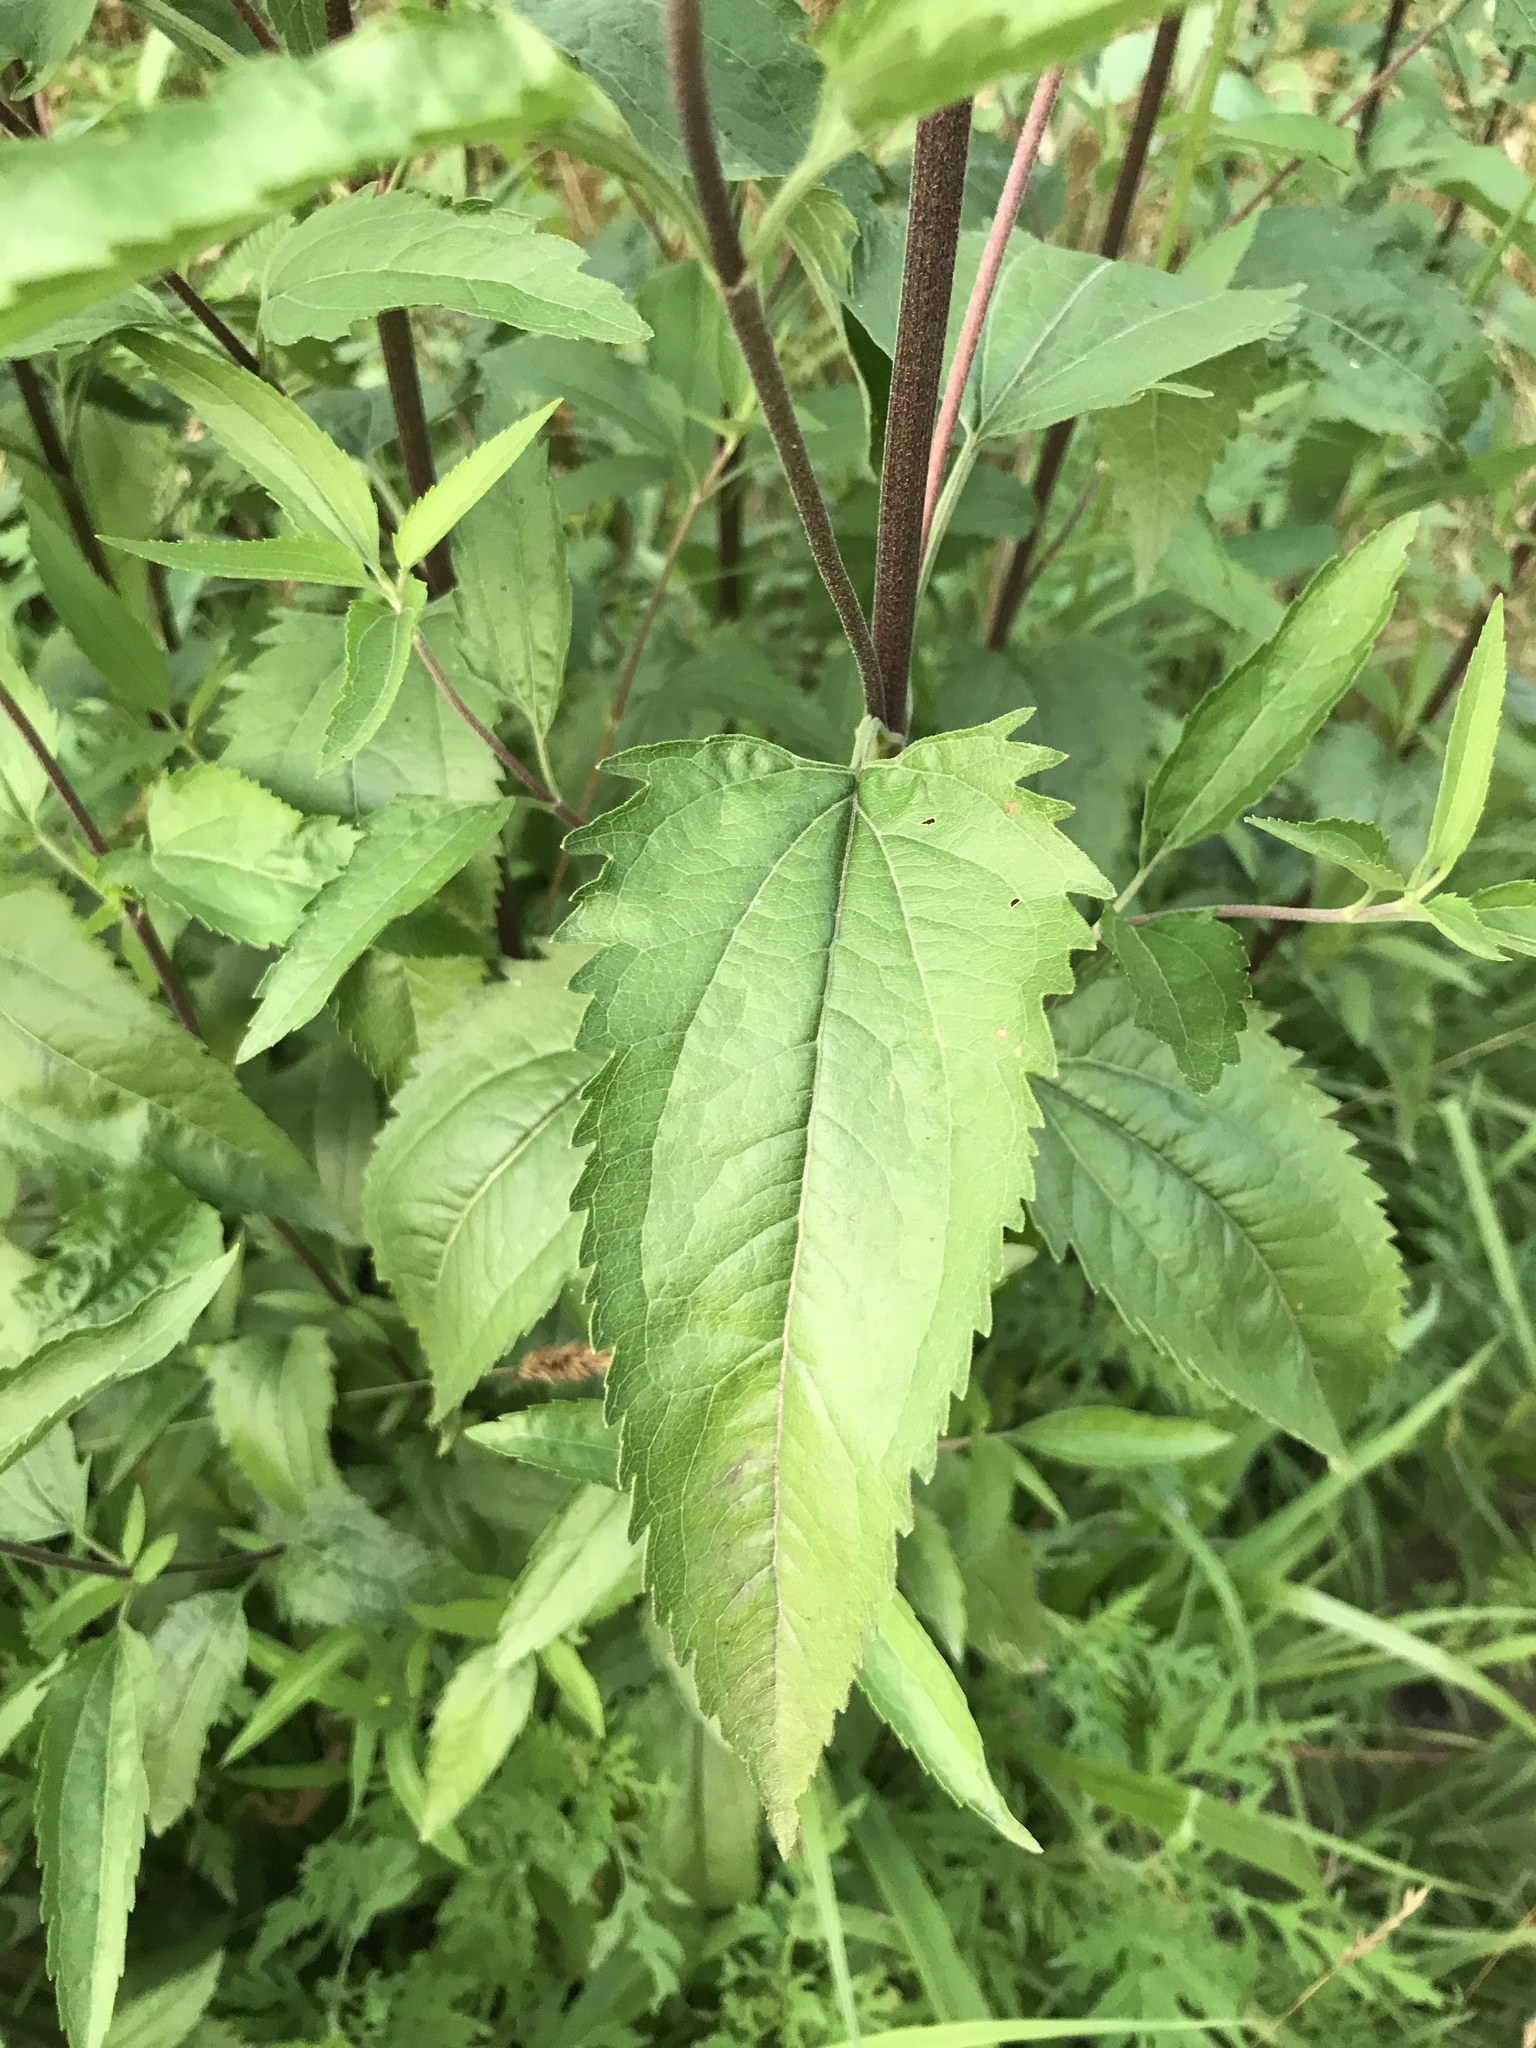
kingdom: Plantae
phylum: Tracheophyta
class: Magnoliopsida
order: Asterales
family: Asteraceae
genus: Eupatorium
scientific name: Eupatorium serotinum
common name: Late boneset
